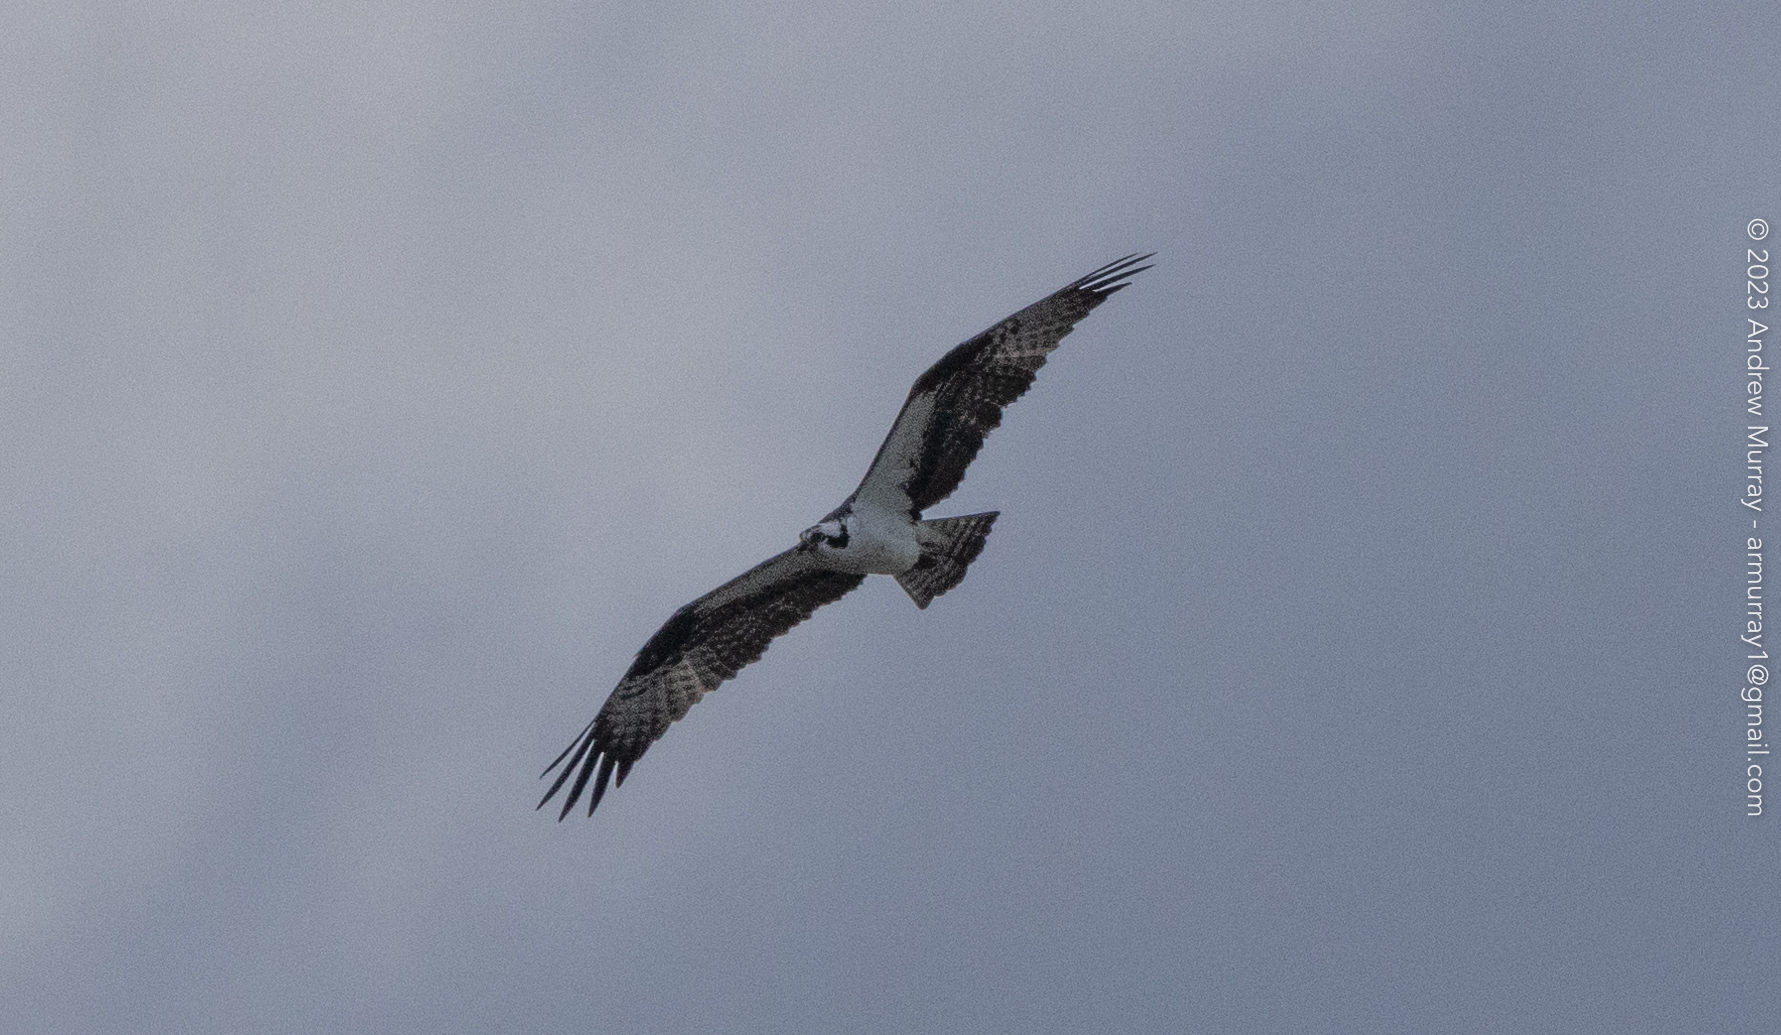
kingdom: Animalia
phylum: Chordata
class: Aves
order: Accipitriformes
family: Pandionidae
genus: Pandion
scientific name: Pandion haliaetus
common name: Osprey
